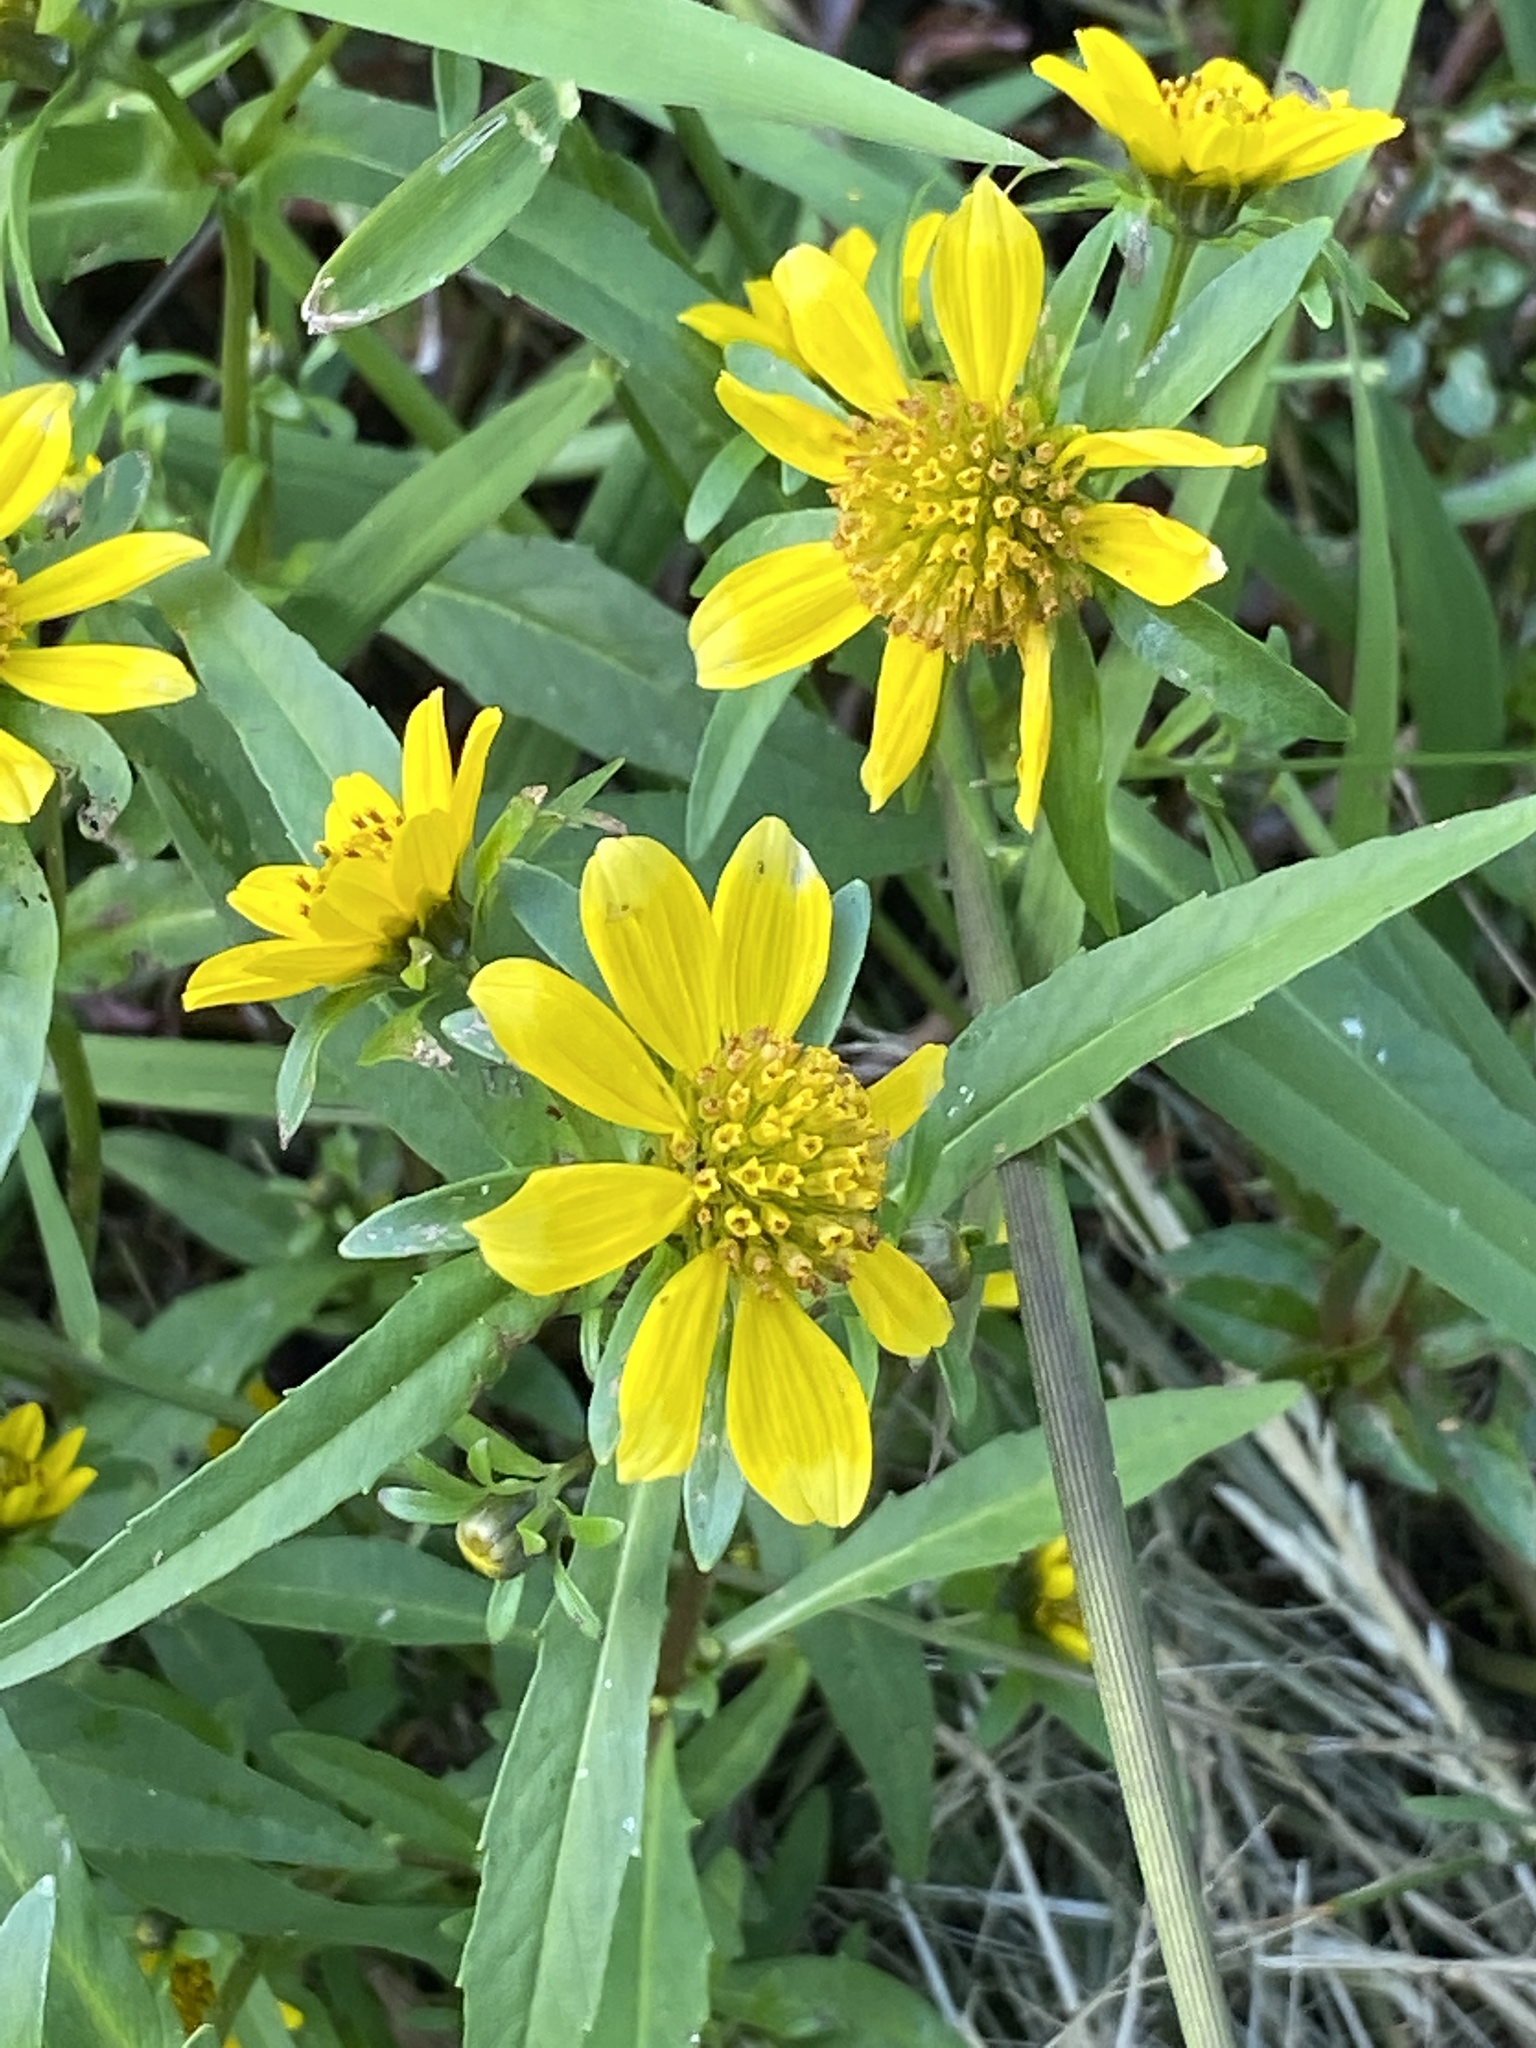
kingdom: Plantae
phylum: Tracheophyta
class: Magnoliopsida
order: Asterales
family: Asteraceae
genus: Bidens
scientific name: Bidens cernua
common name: Nodding bur-marigold
